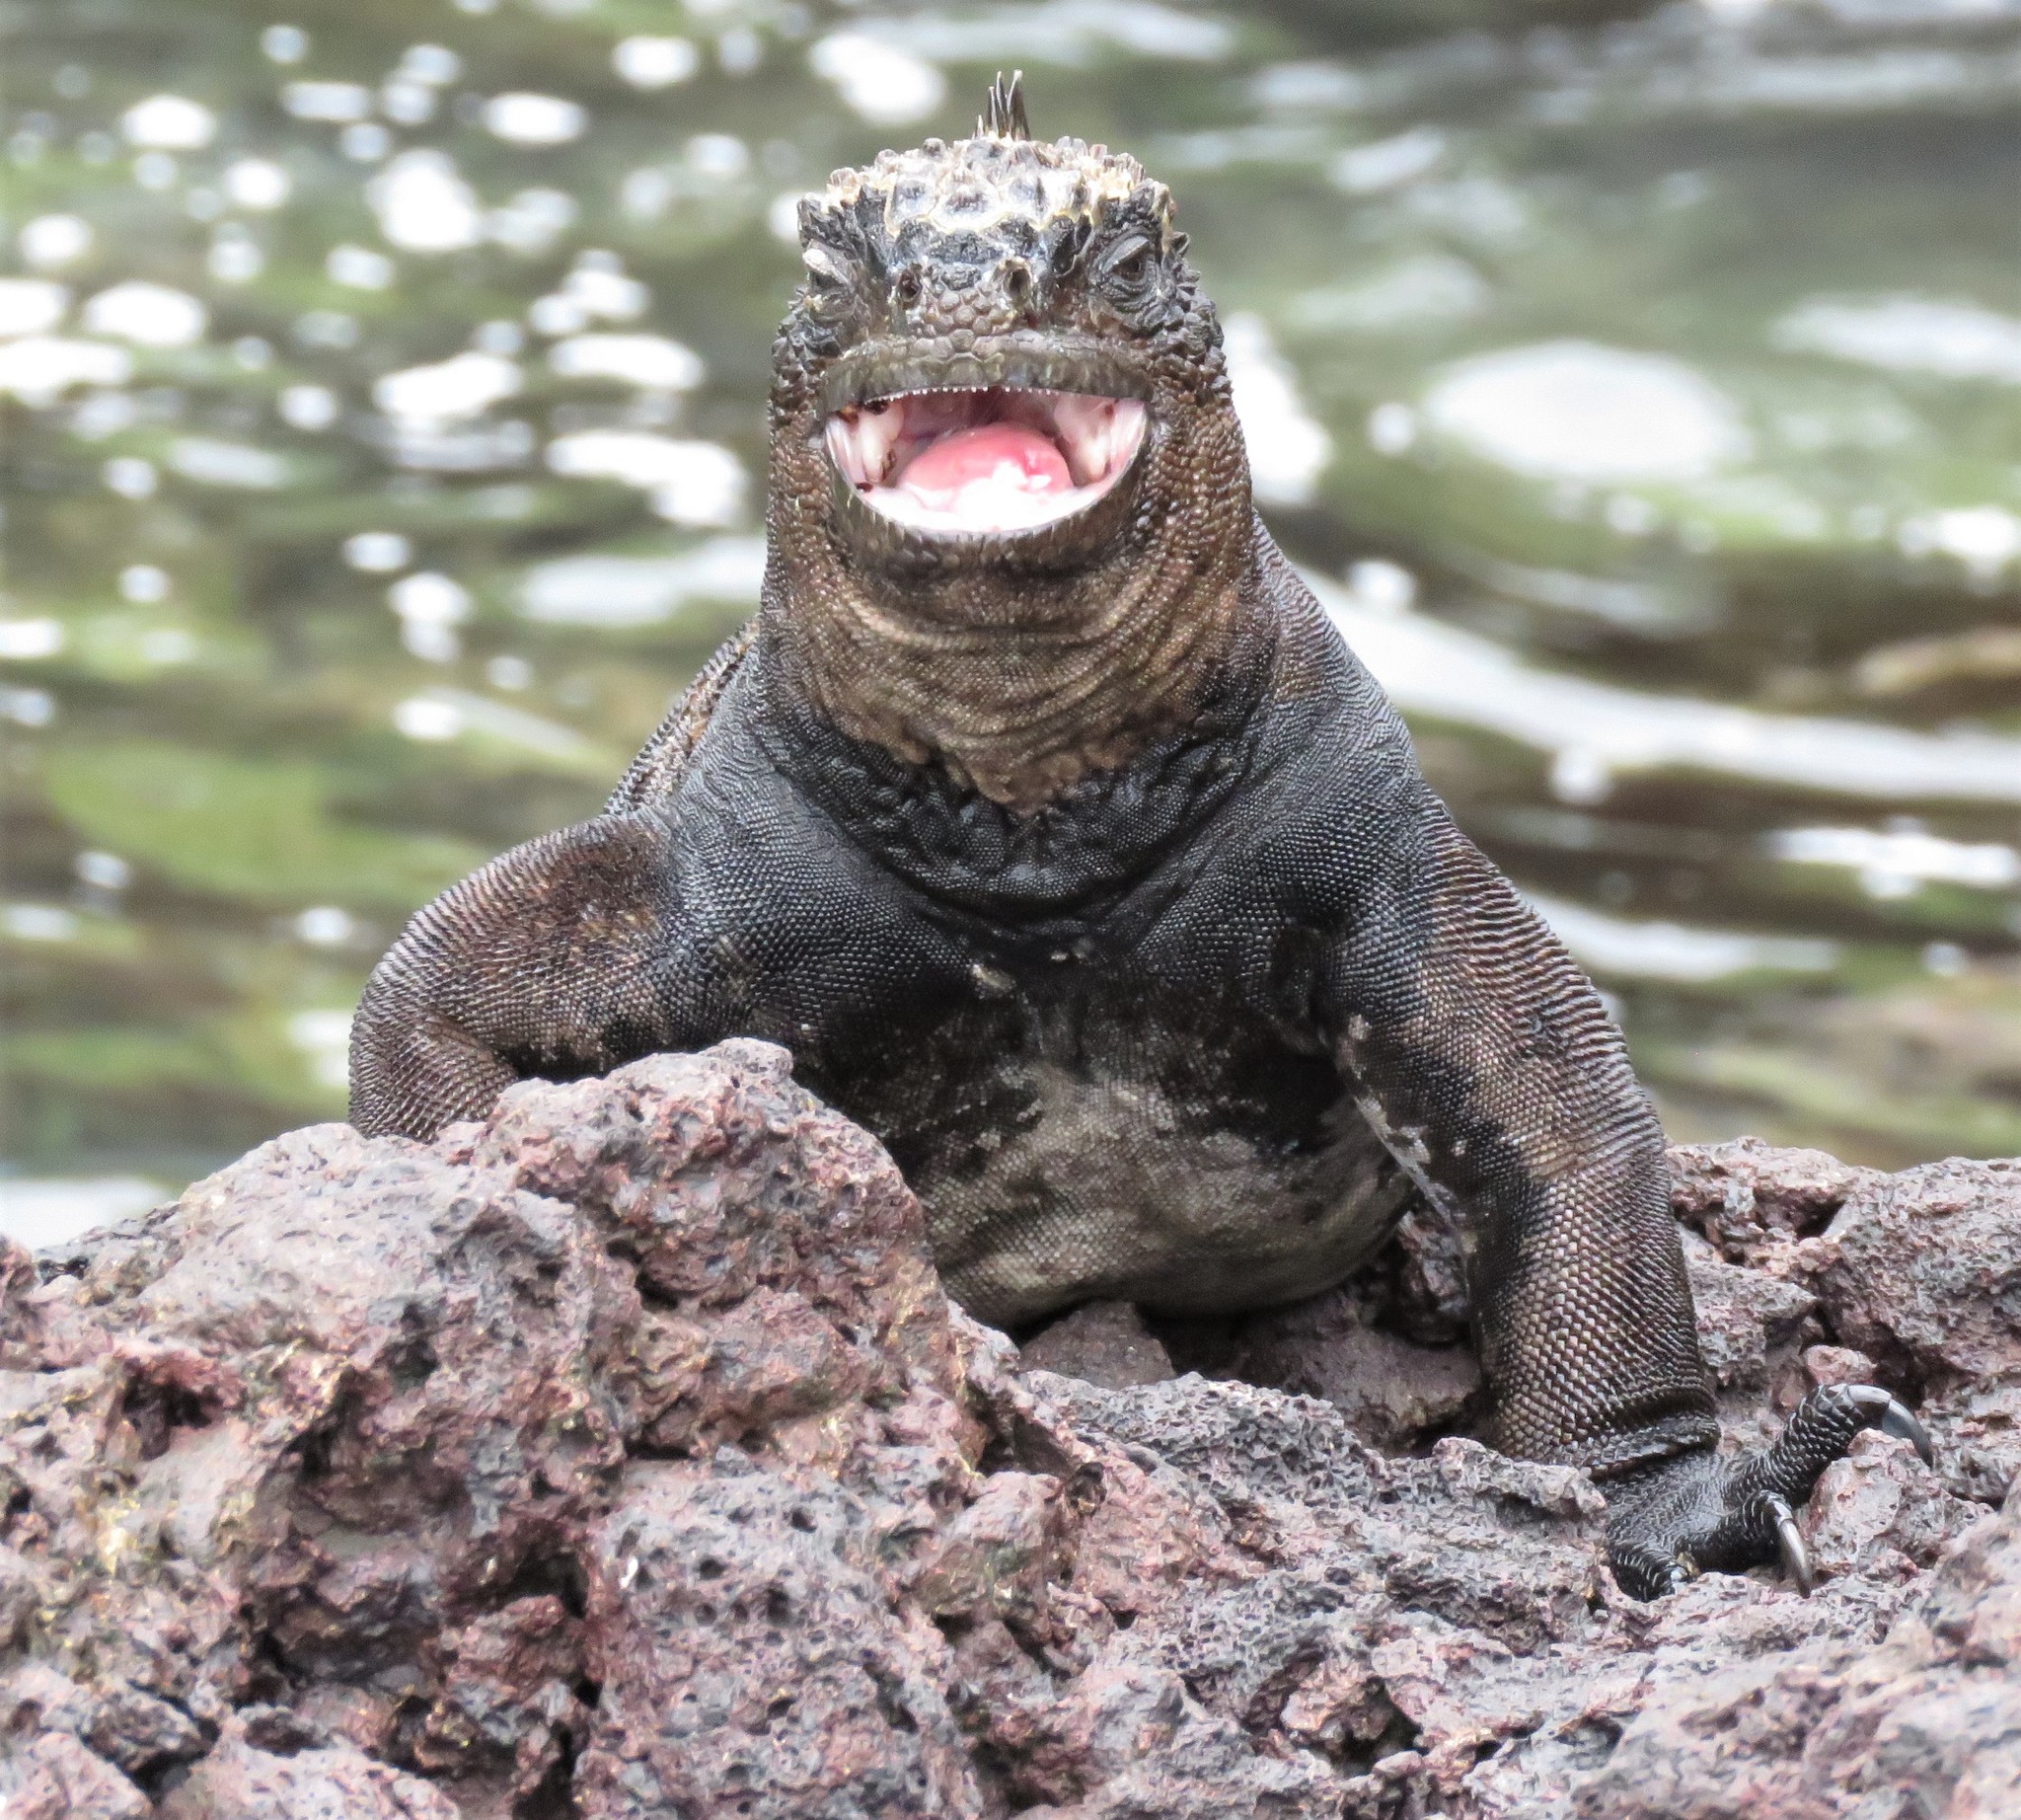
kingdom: Animalia
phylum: Chordata
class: Squamata
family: Iguanidae
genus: Amblyrhynchus
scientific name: Amblyrhynchus cristatus
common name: Marine iguana
